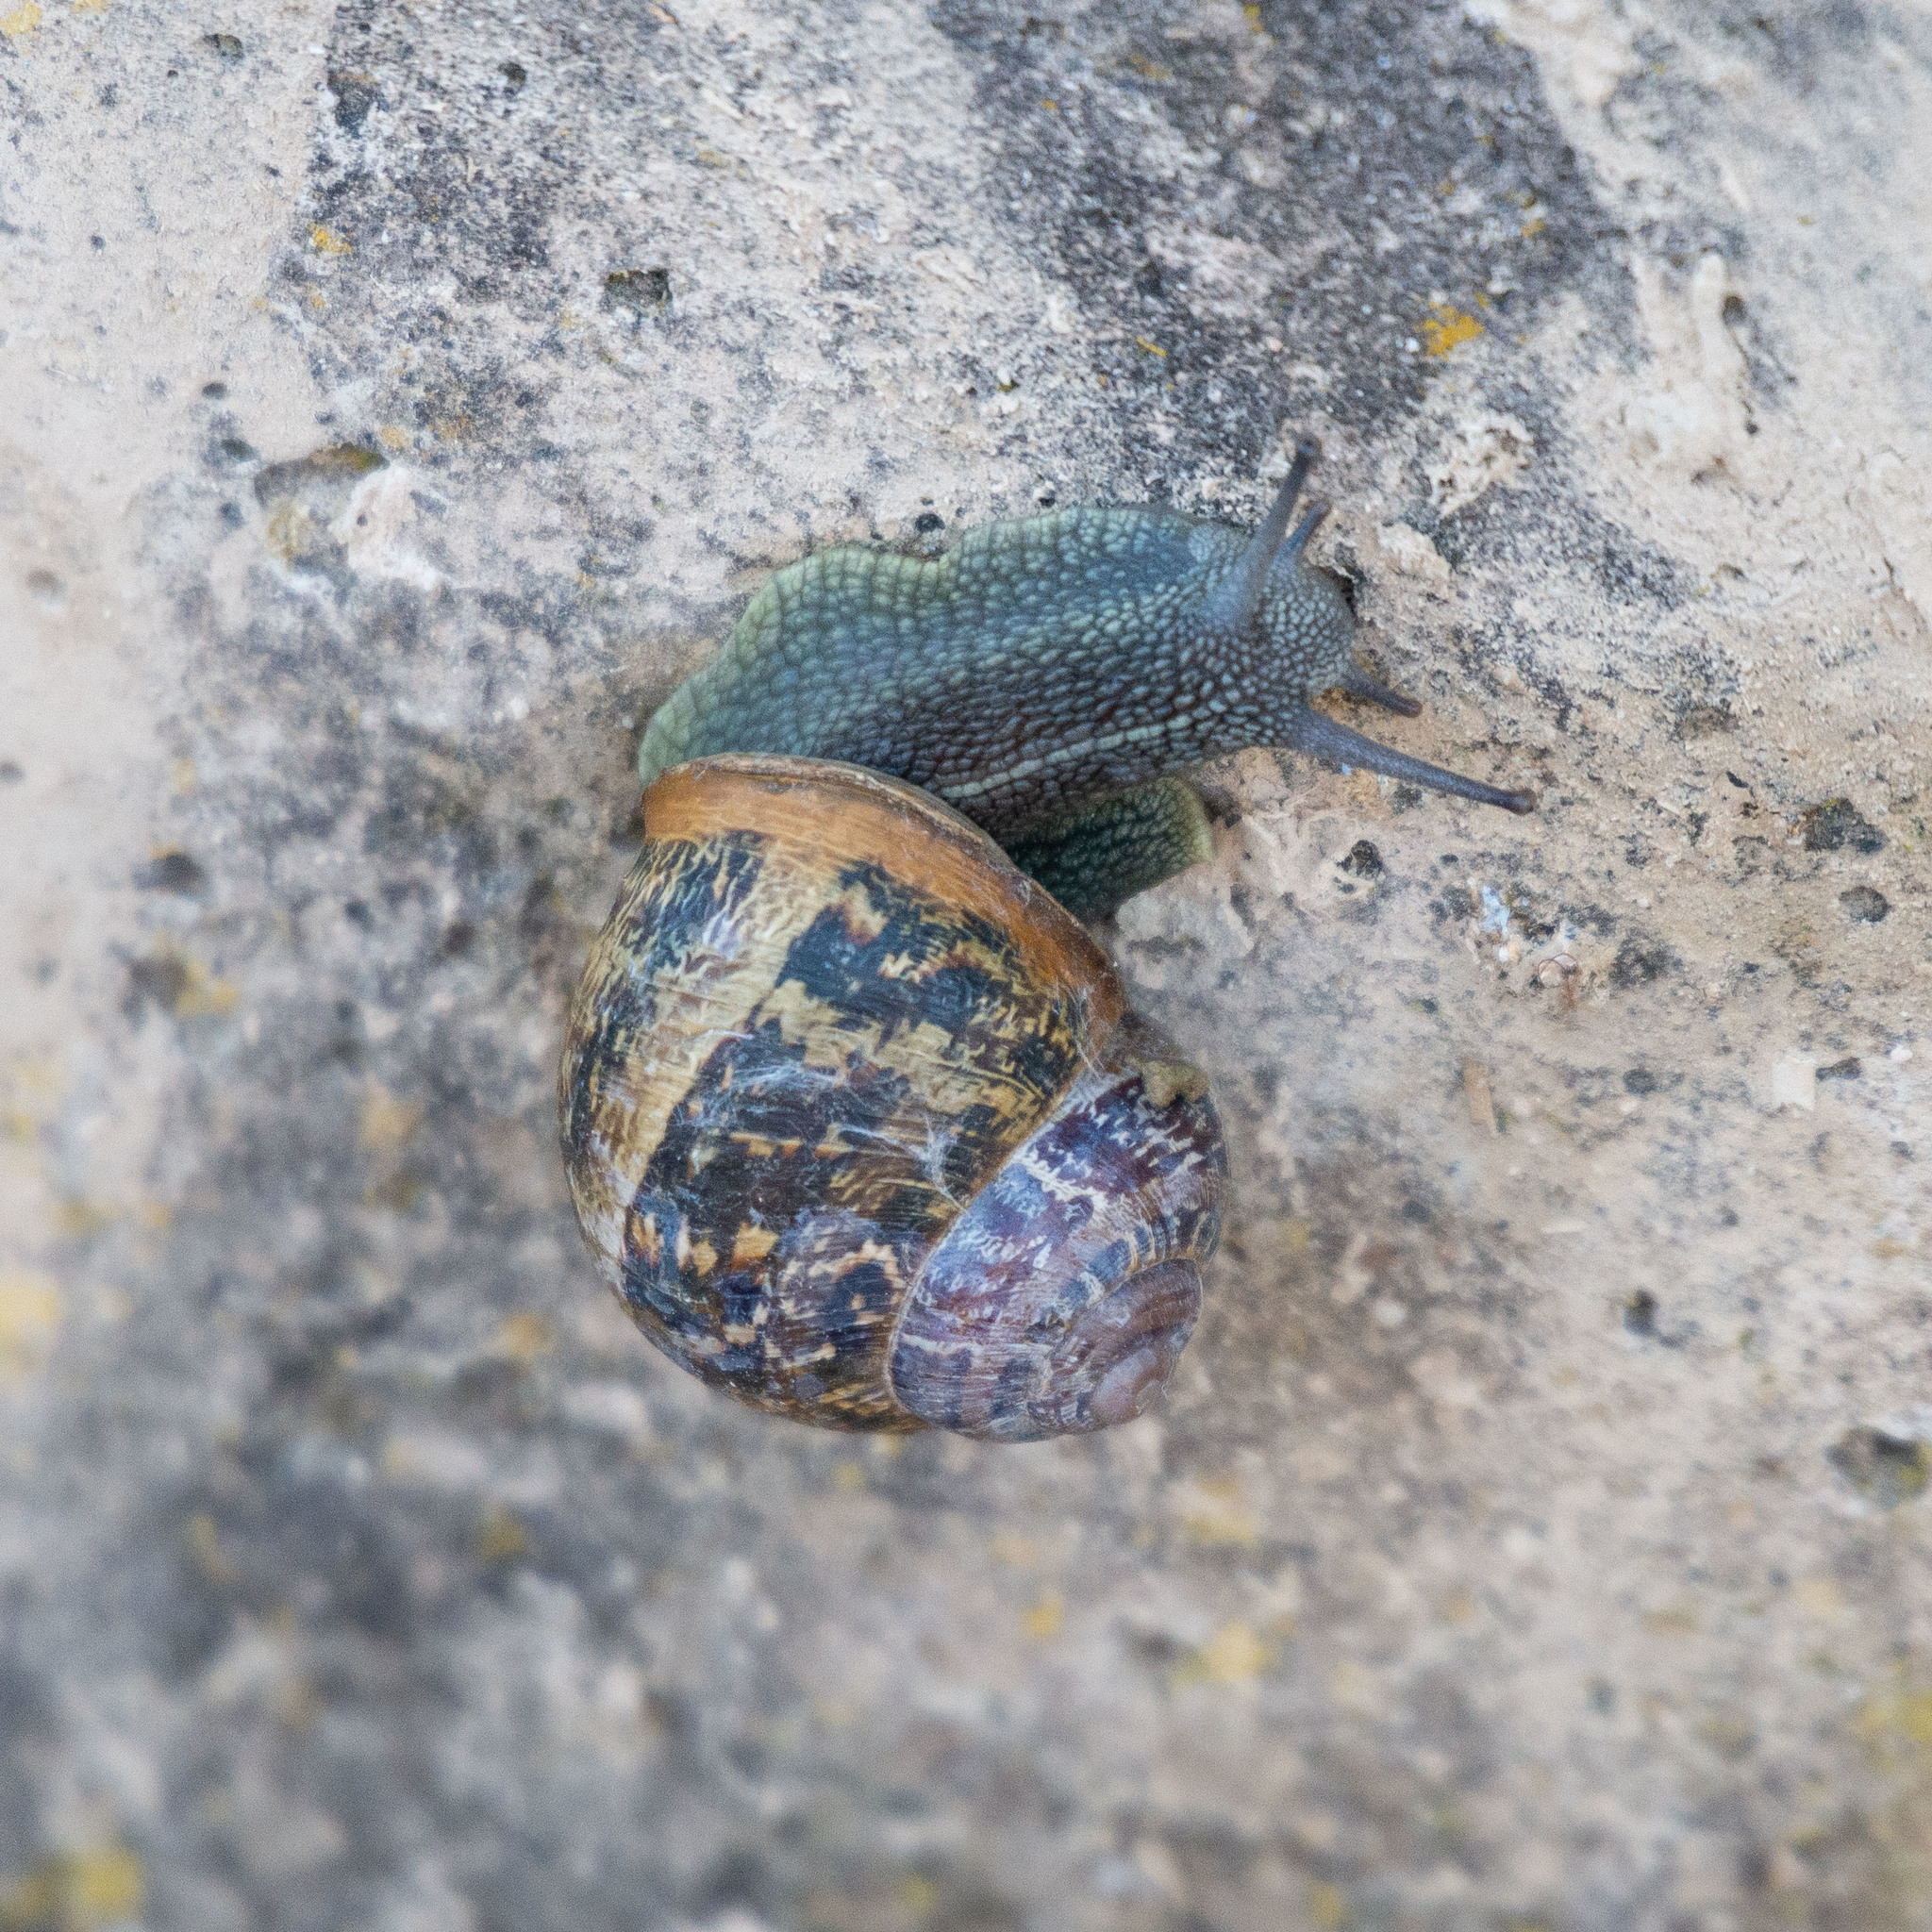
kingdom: Animalia
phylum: Mollusca
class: Gastropoda
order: Stylommatophora
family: Helicidae
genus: Cornu
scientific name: Cornu aspersum
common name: Brown garden snail
